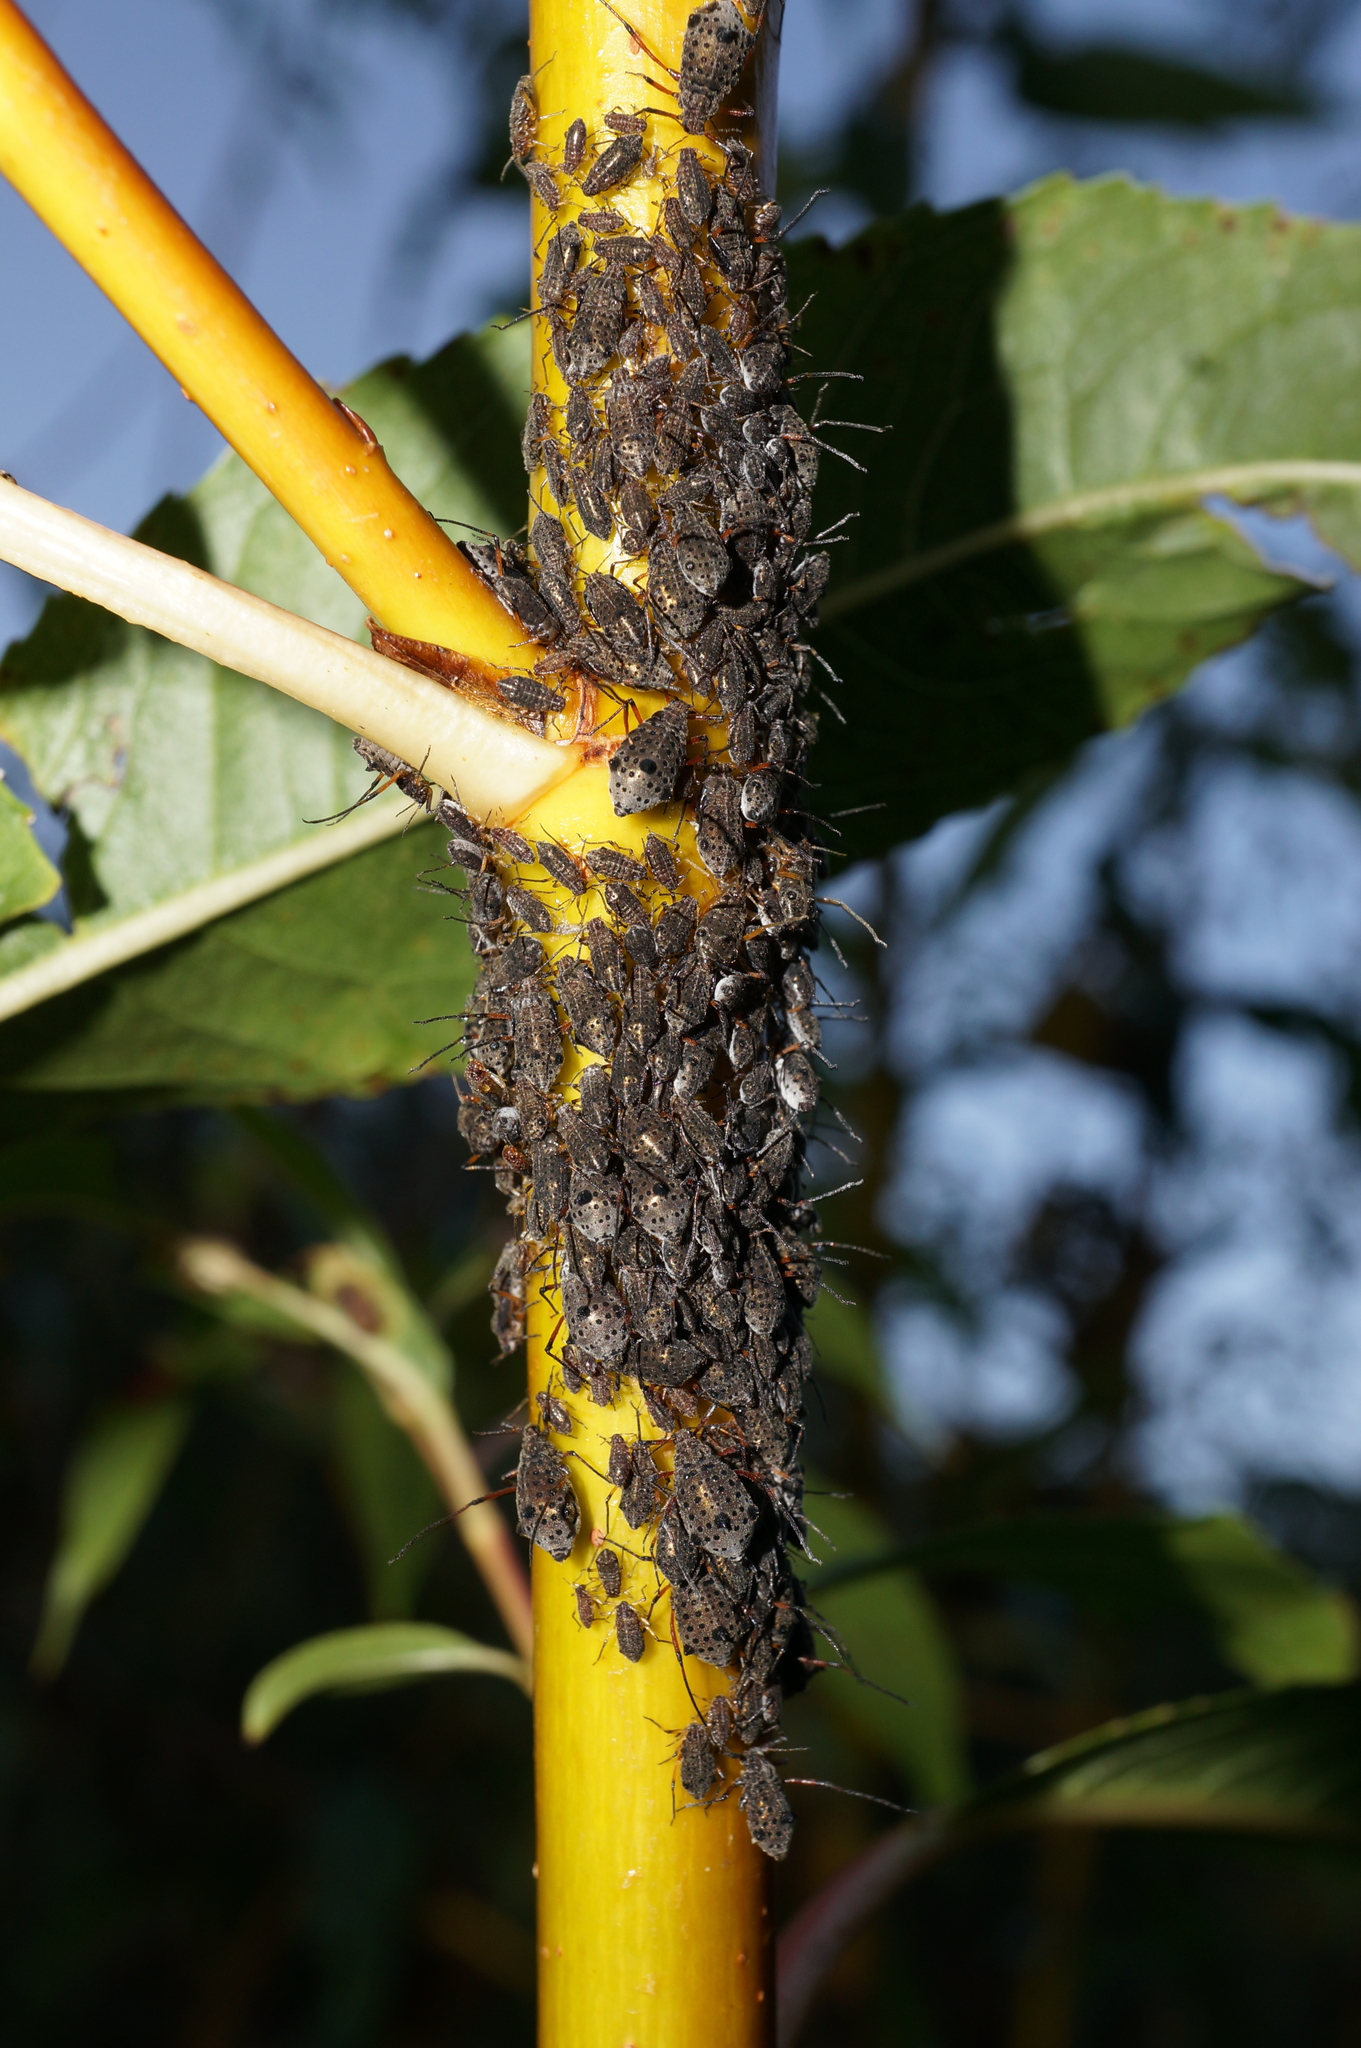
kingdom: Animalia
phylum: Arthropoda
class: Insecta
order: Hemiptera
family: Aphididae
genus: Tuberolachnus
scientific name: Tuberolachnus salignus
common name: Giant willow aphid
